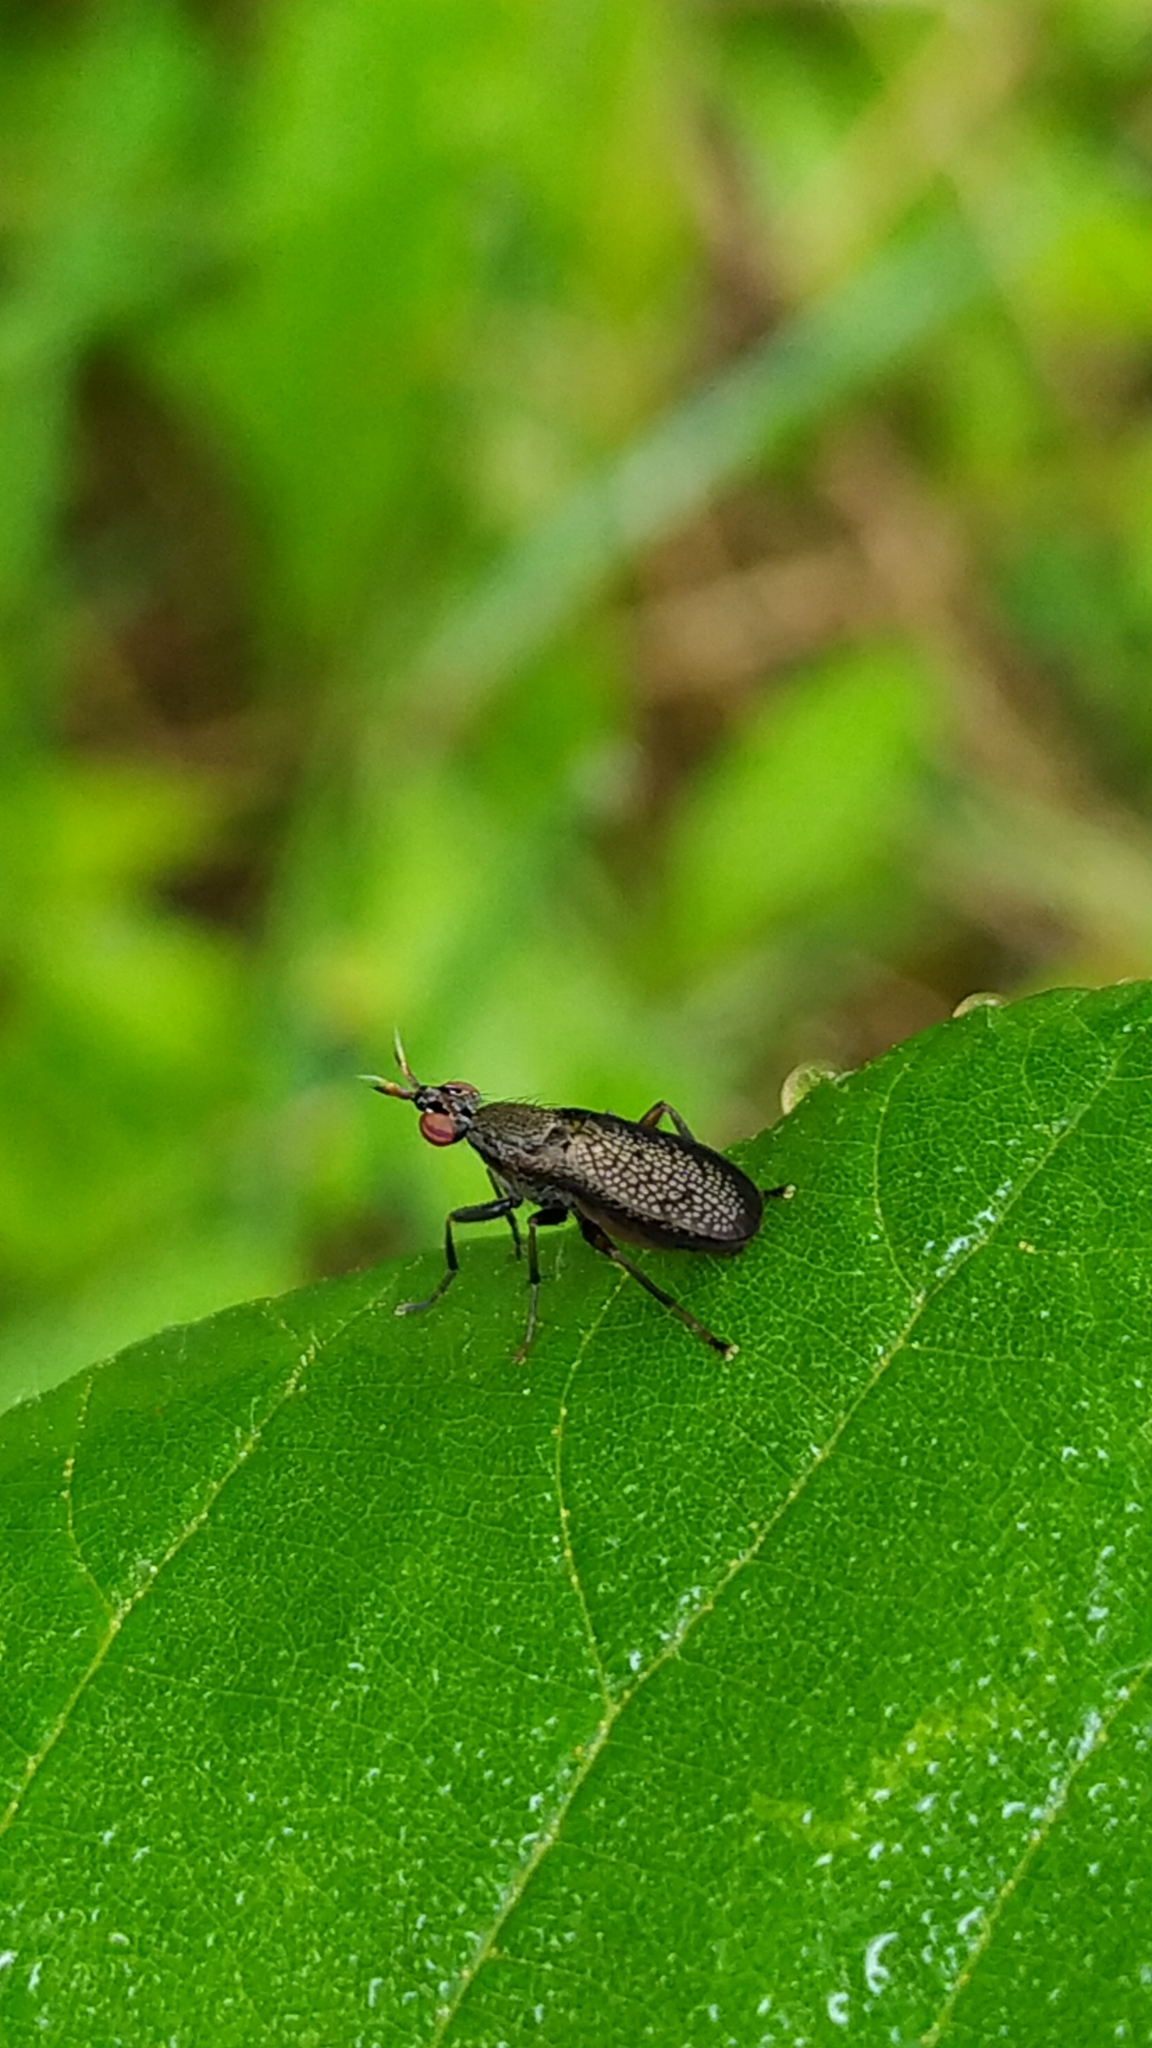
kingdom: Animalia
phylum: Arthropoda
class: Insecta
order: Diptera
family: Sciomyzidae
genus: Coremacera
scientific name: Coremacera marginata
